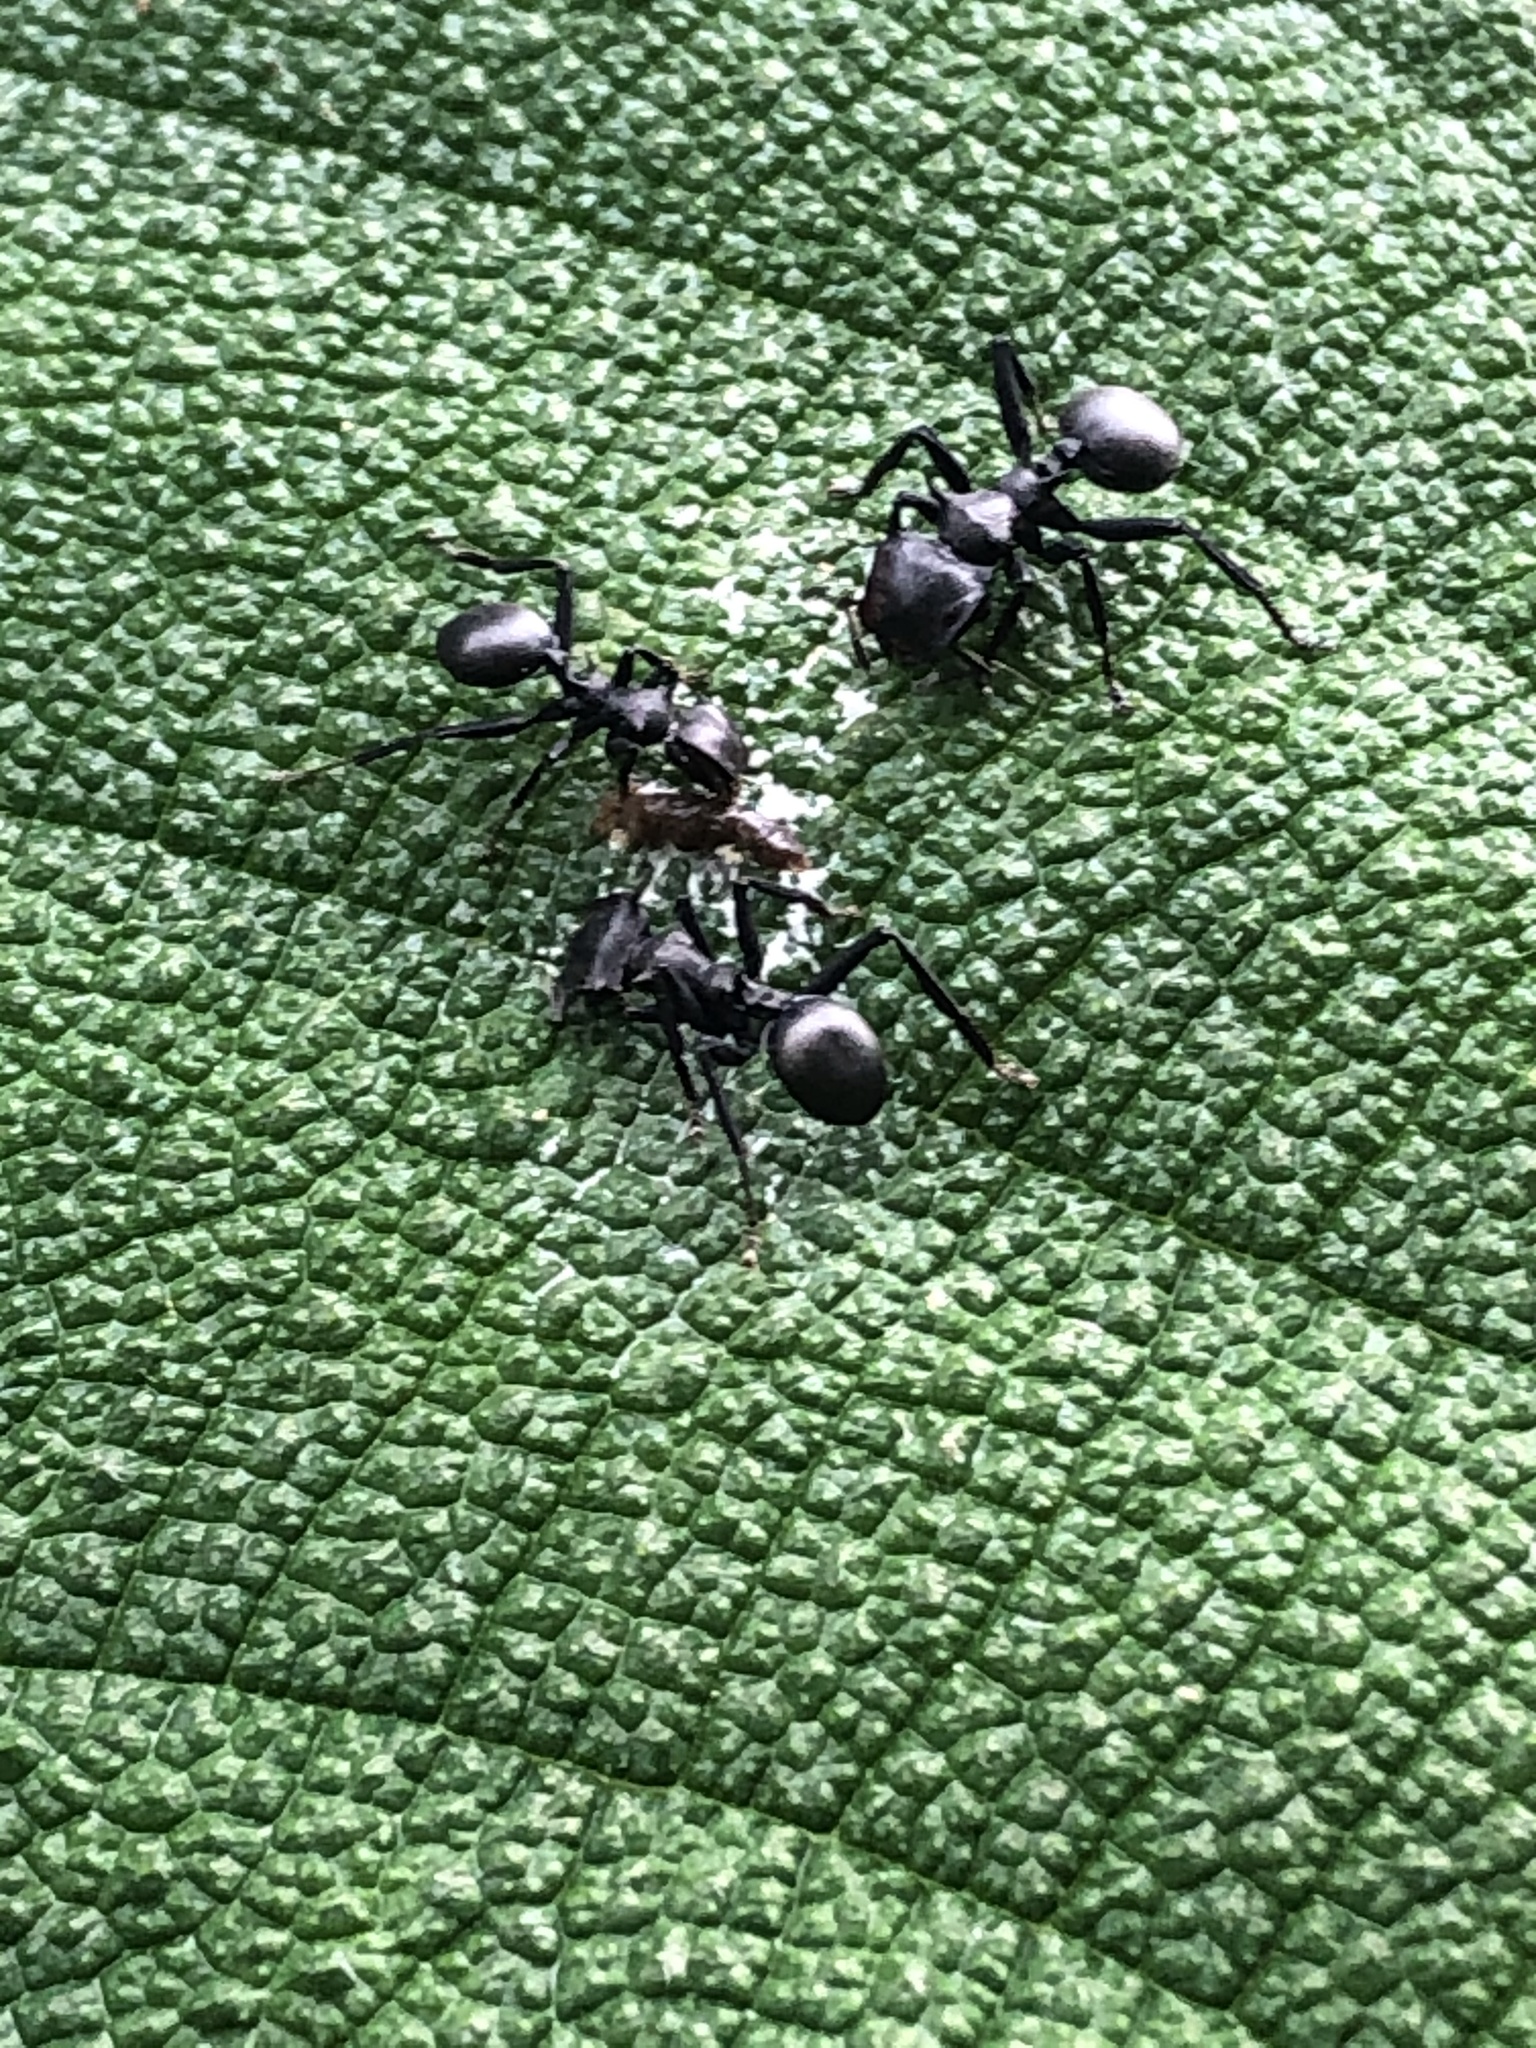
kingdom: Animalia
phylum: Arthropoda
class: Insecta
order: Hymenoptera
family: Formicidae
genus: Cephalotes
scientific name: Cephalotes atratus
